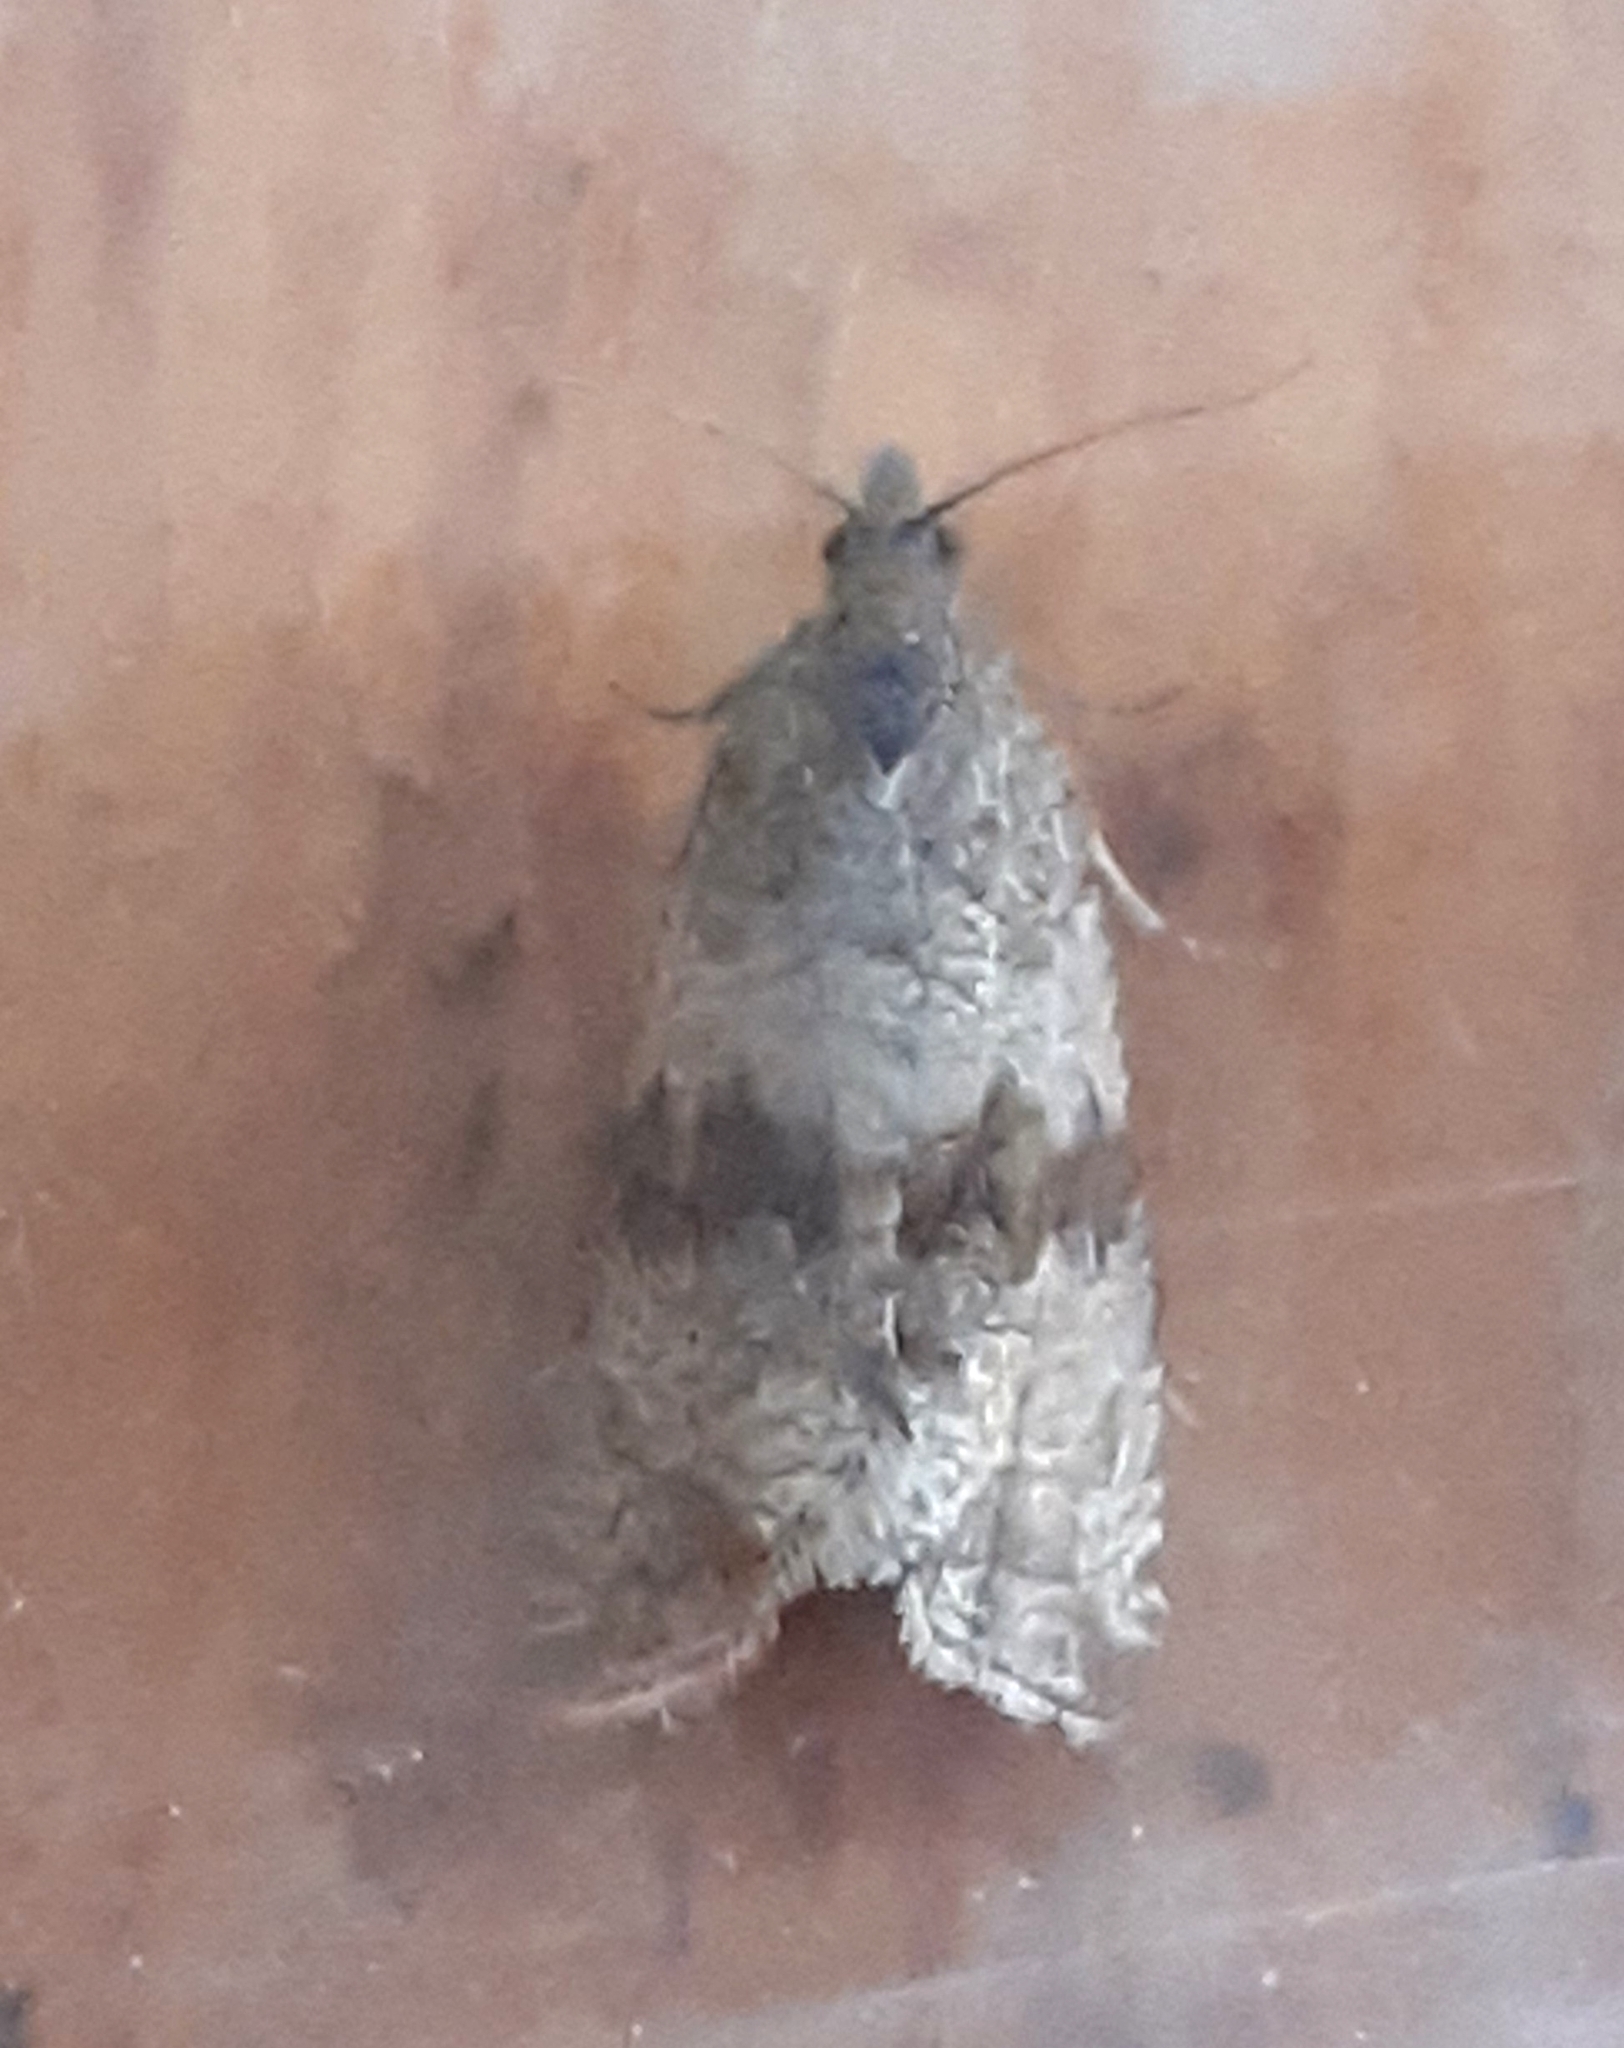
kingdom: Animalia
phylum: Arthropoda
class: Insecta
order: Lepidoptera
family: Tortricidae
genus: Celypha
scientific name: Celypha striana
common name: Barred marble
